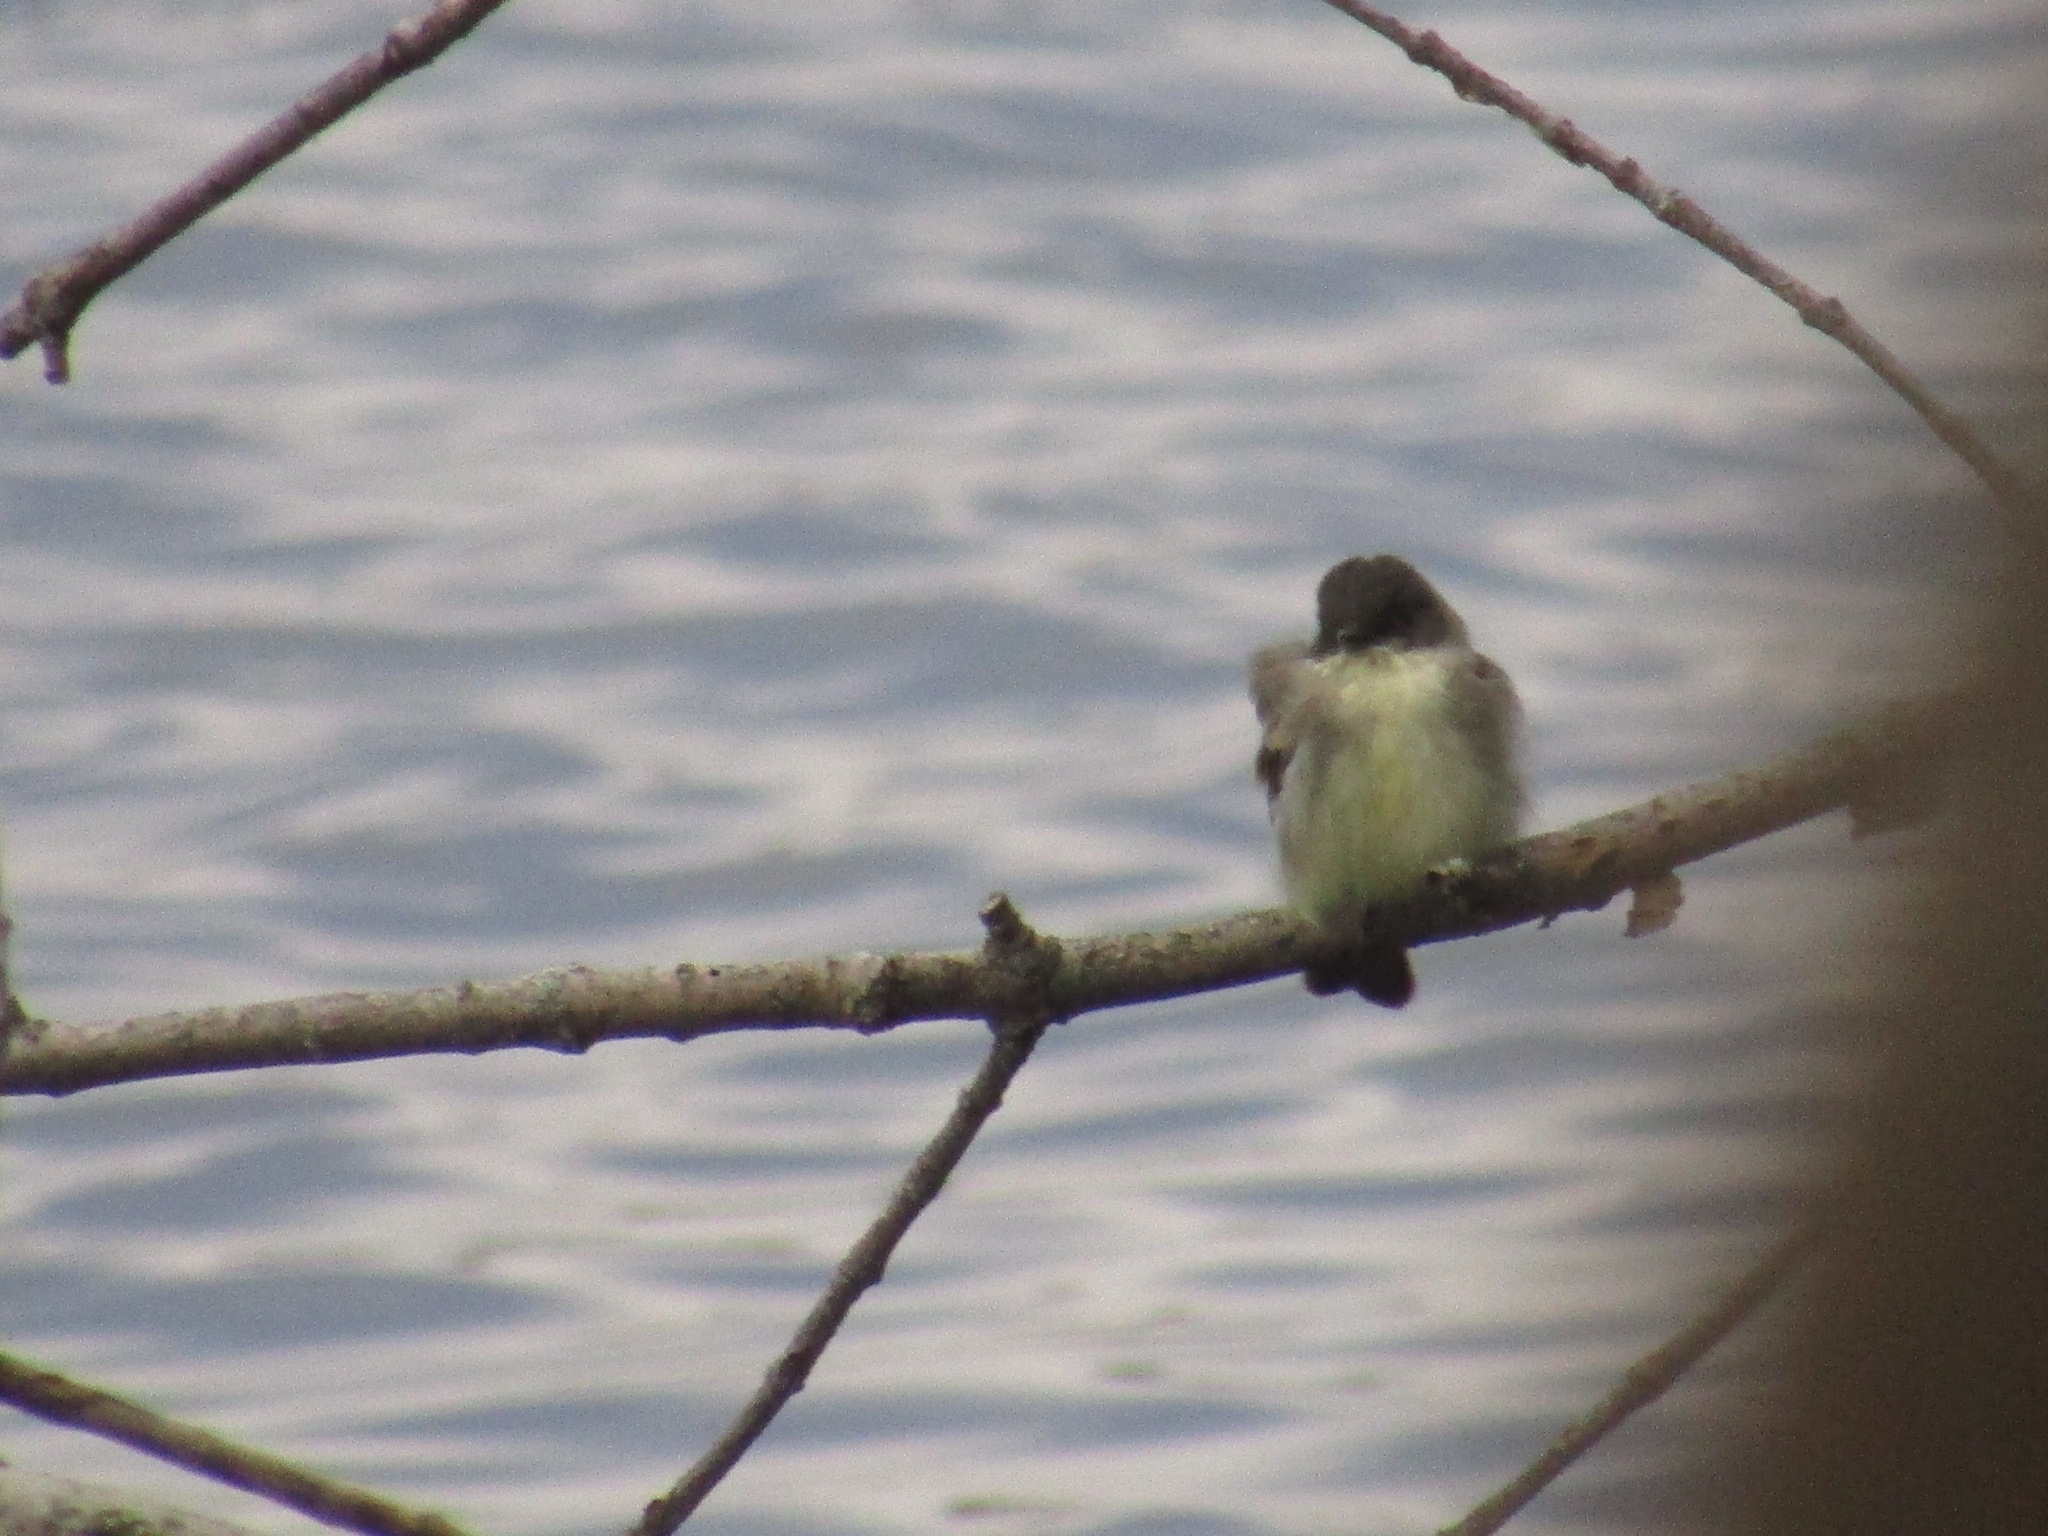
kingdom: Animalia
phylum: Chordata
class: Aves
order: Passeriformes
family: Tyrannidae
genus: Sayornis
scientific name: Sayornis phoebe
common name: Eastern phoebe
